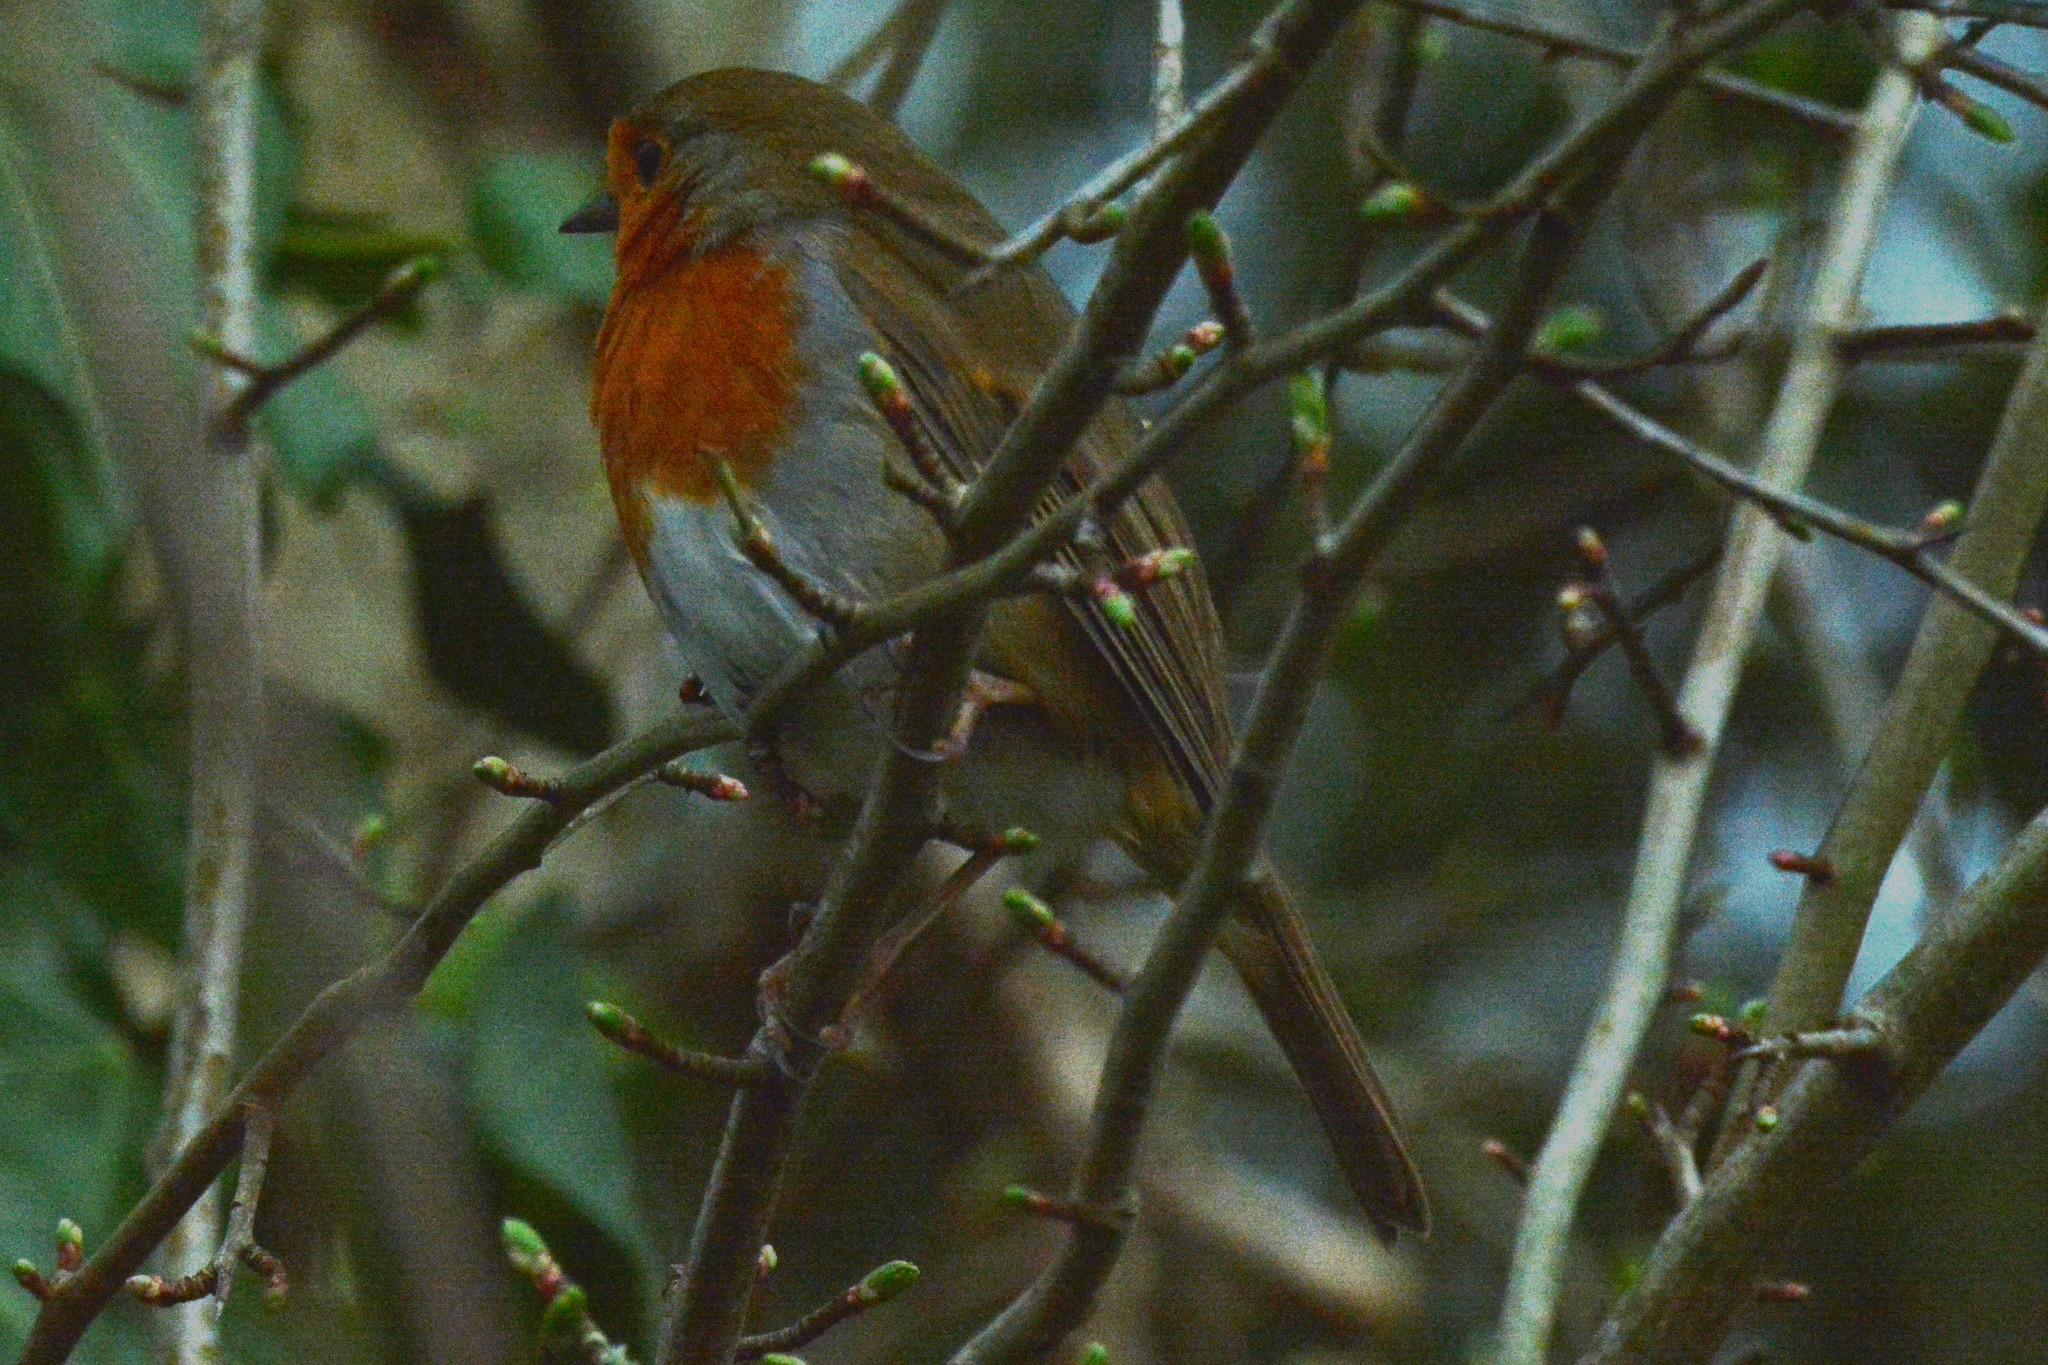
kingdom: Animalia
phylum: Chordata
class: Aves
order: Passeriformes
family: Muscicapidae
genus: Erithacus
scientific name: Erithacus rubecula
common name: European robin
